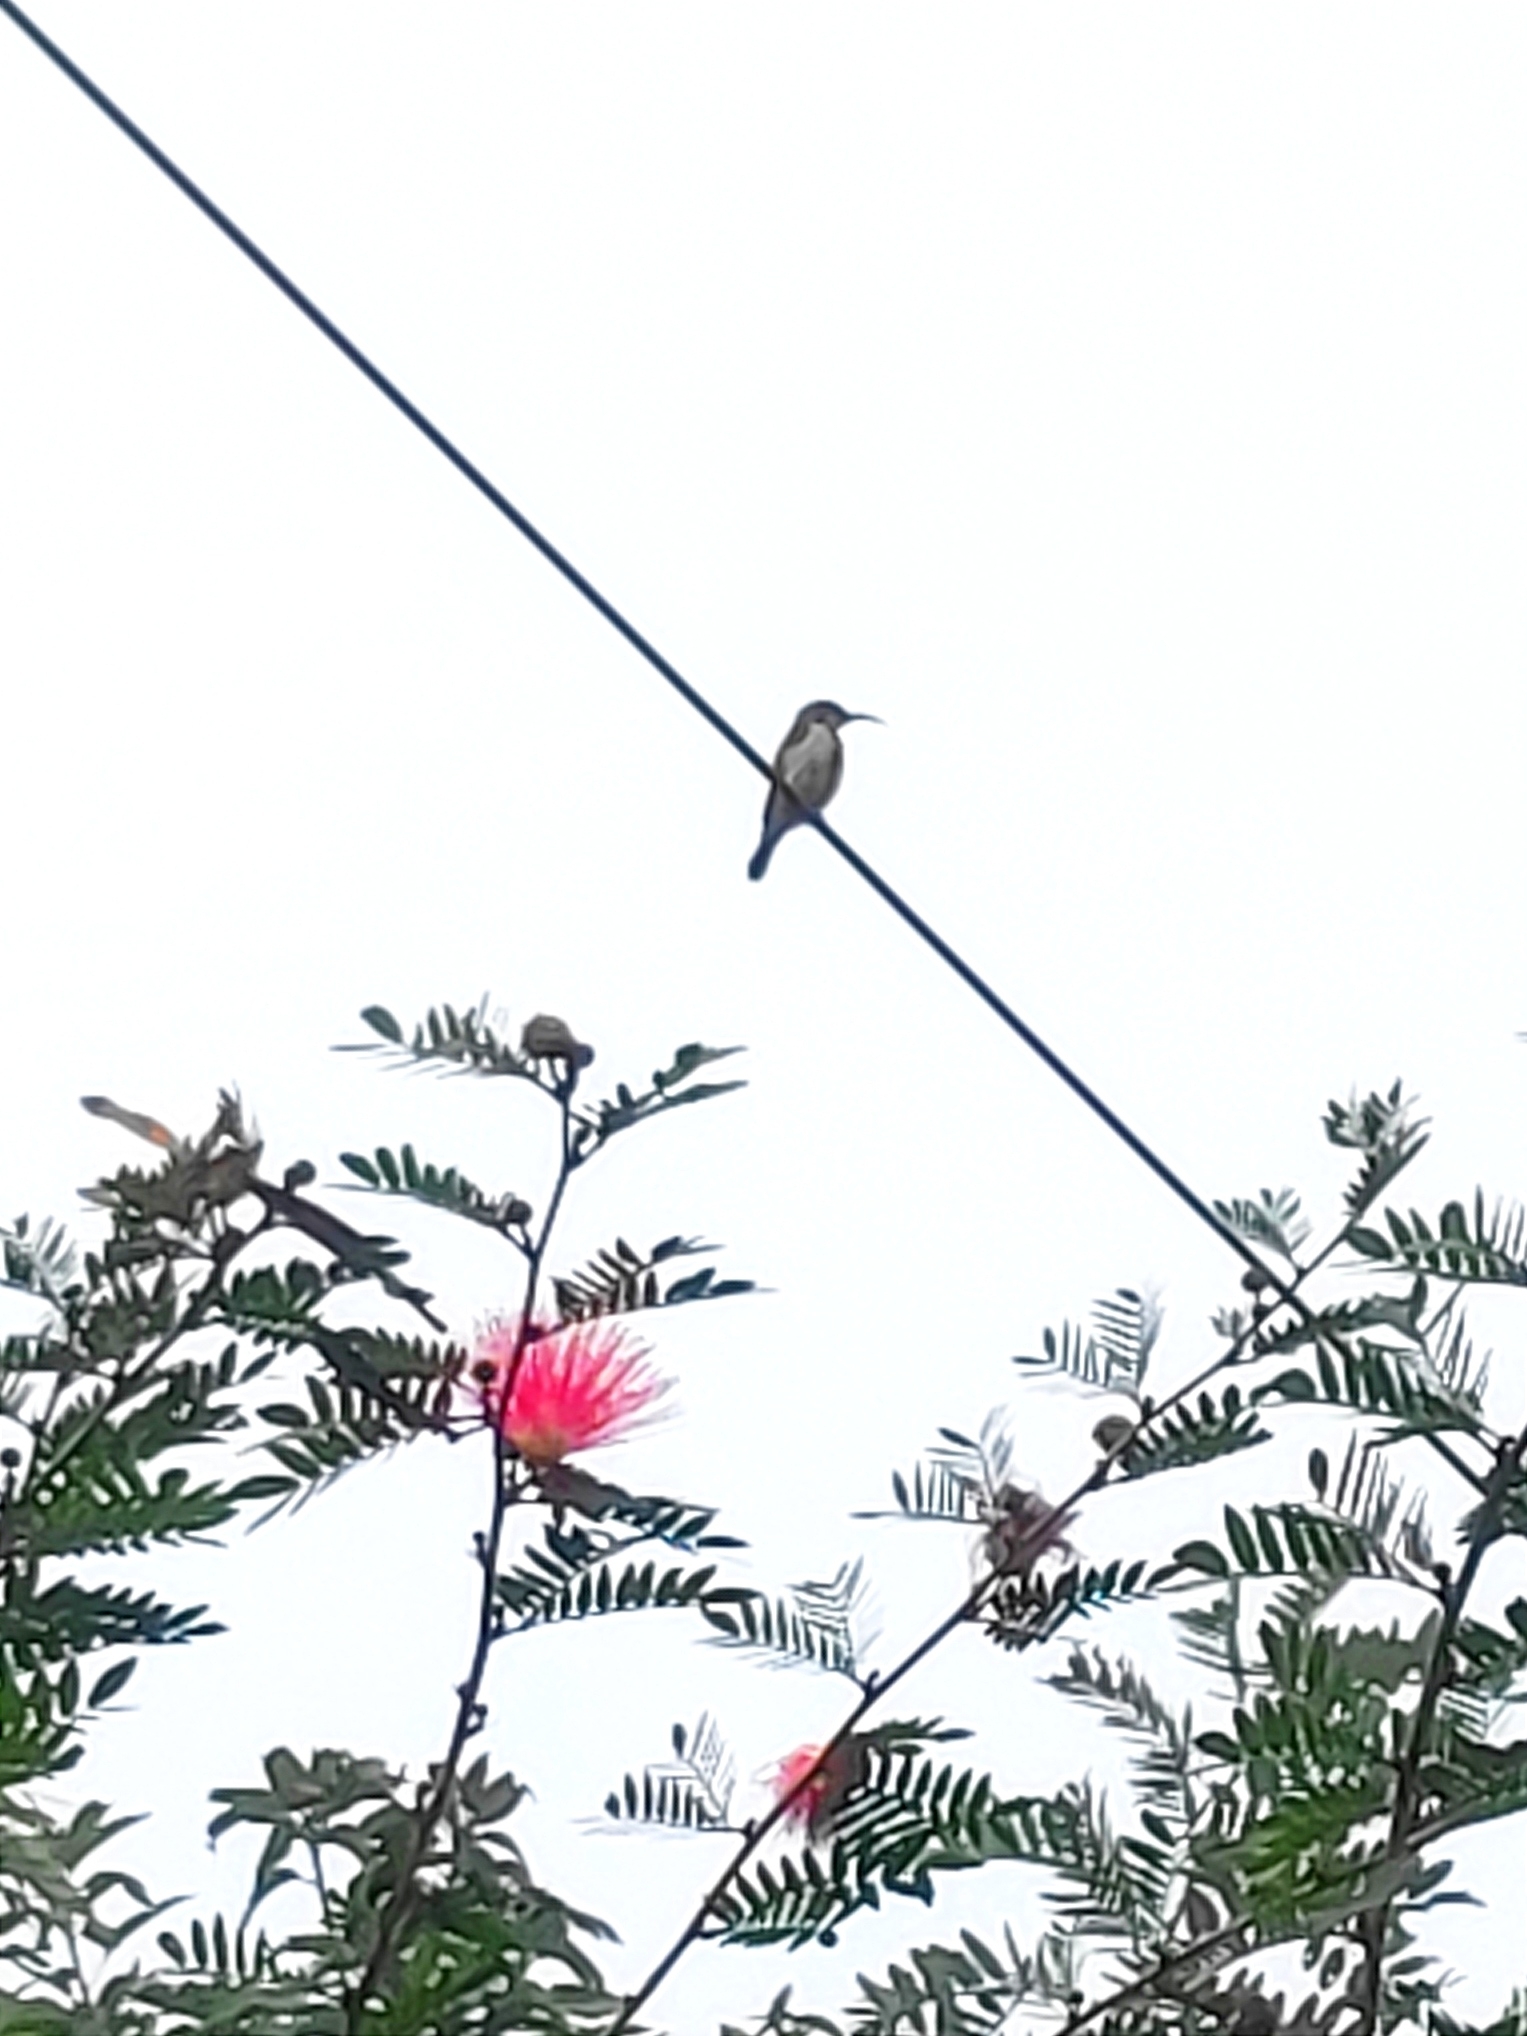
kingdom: Animalia
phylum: Chordata
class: Aves
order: Passeriformes
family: Nectariniidae
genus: Cinnyris
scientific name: Cinnyris asiaticus
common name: Purple sunbird
